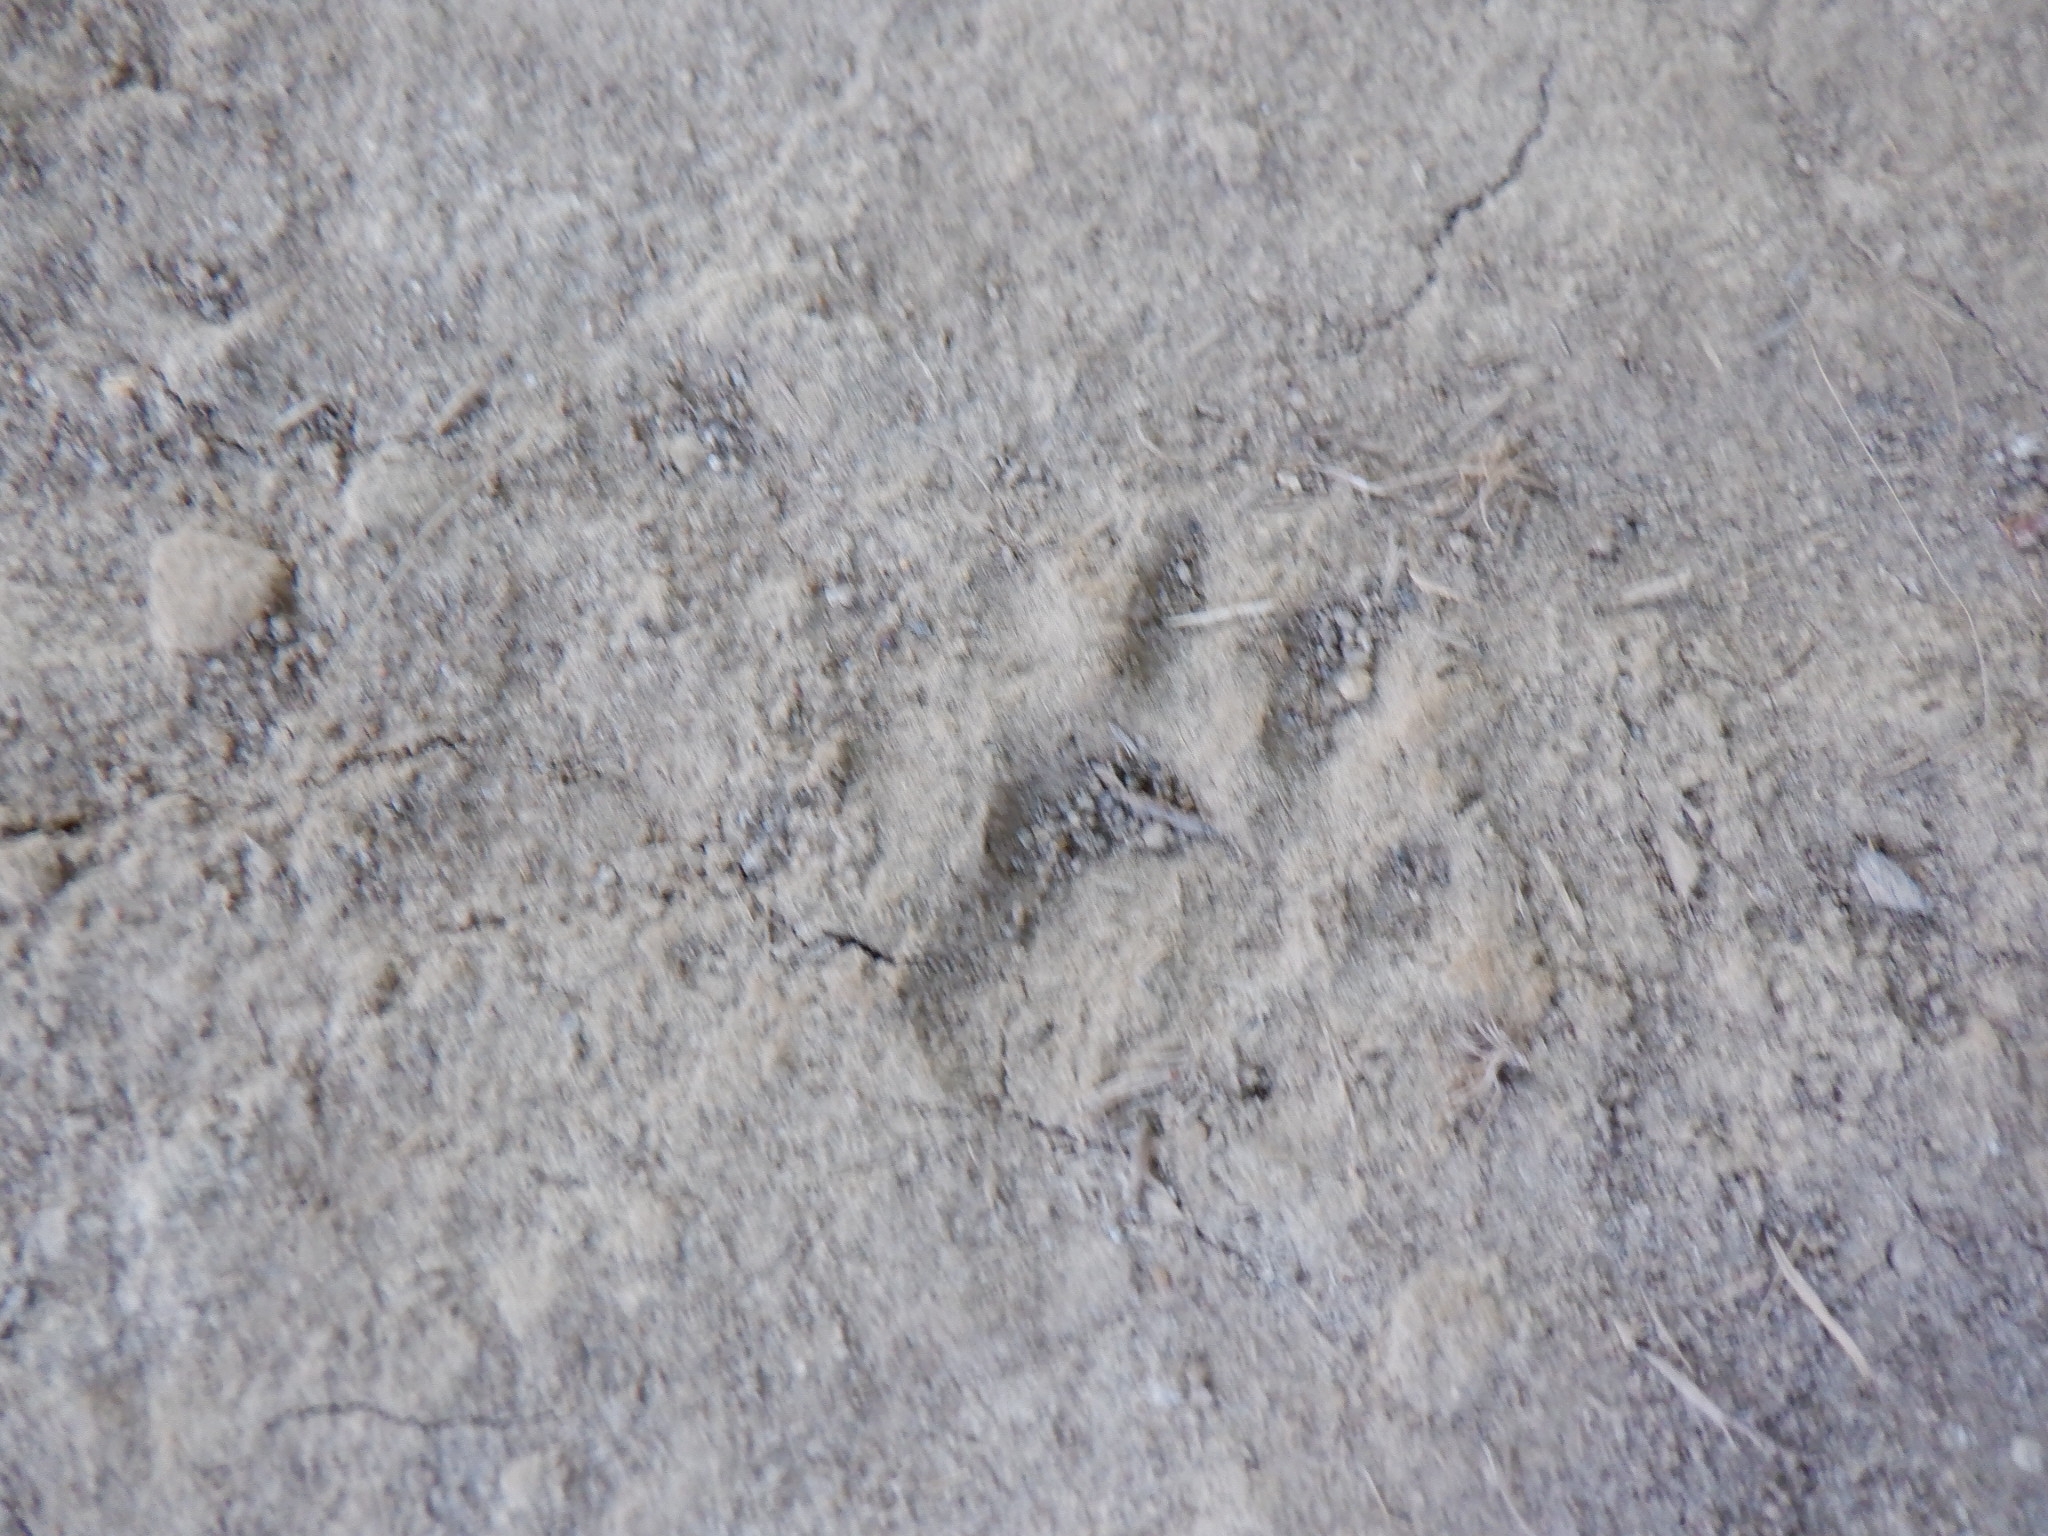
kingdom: Animalia
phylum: Chordata
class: Mammalia
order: Carnivora
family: Procyonidae
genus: Procyon
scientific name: Procyon lotor
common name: Raccoon
